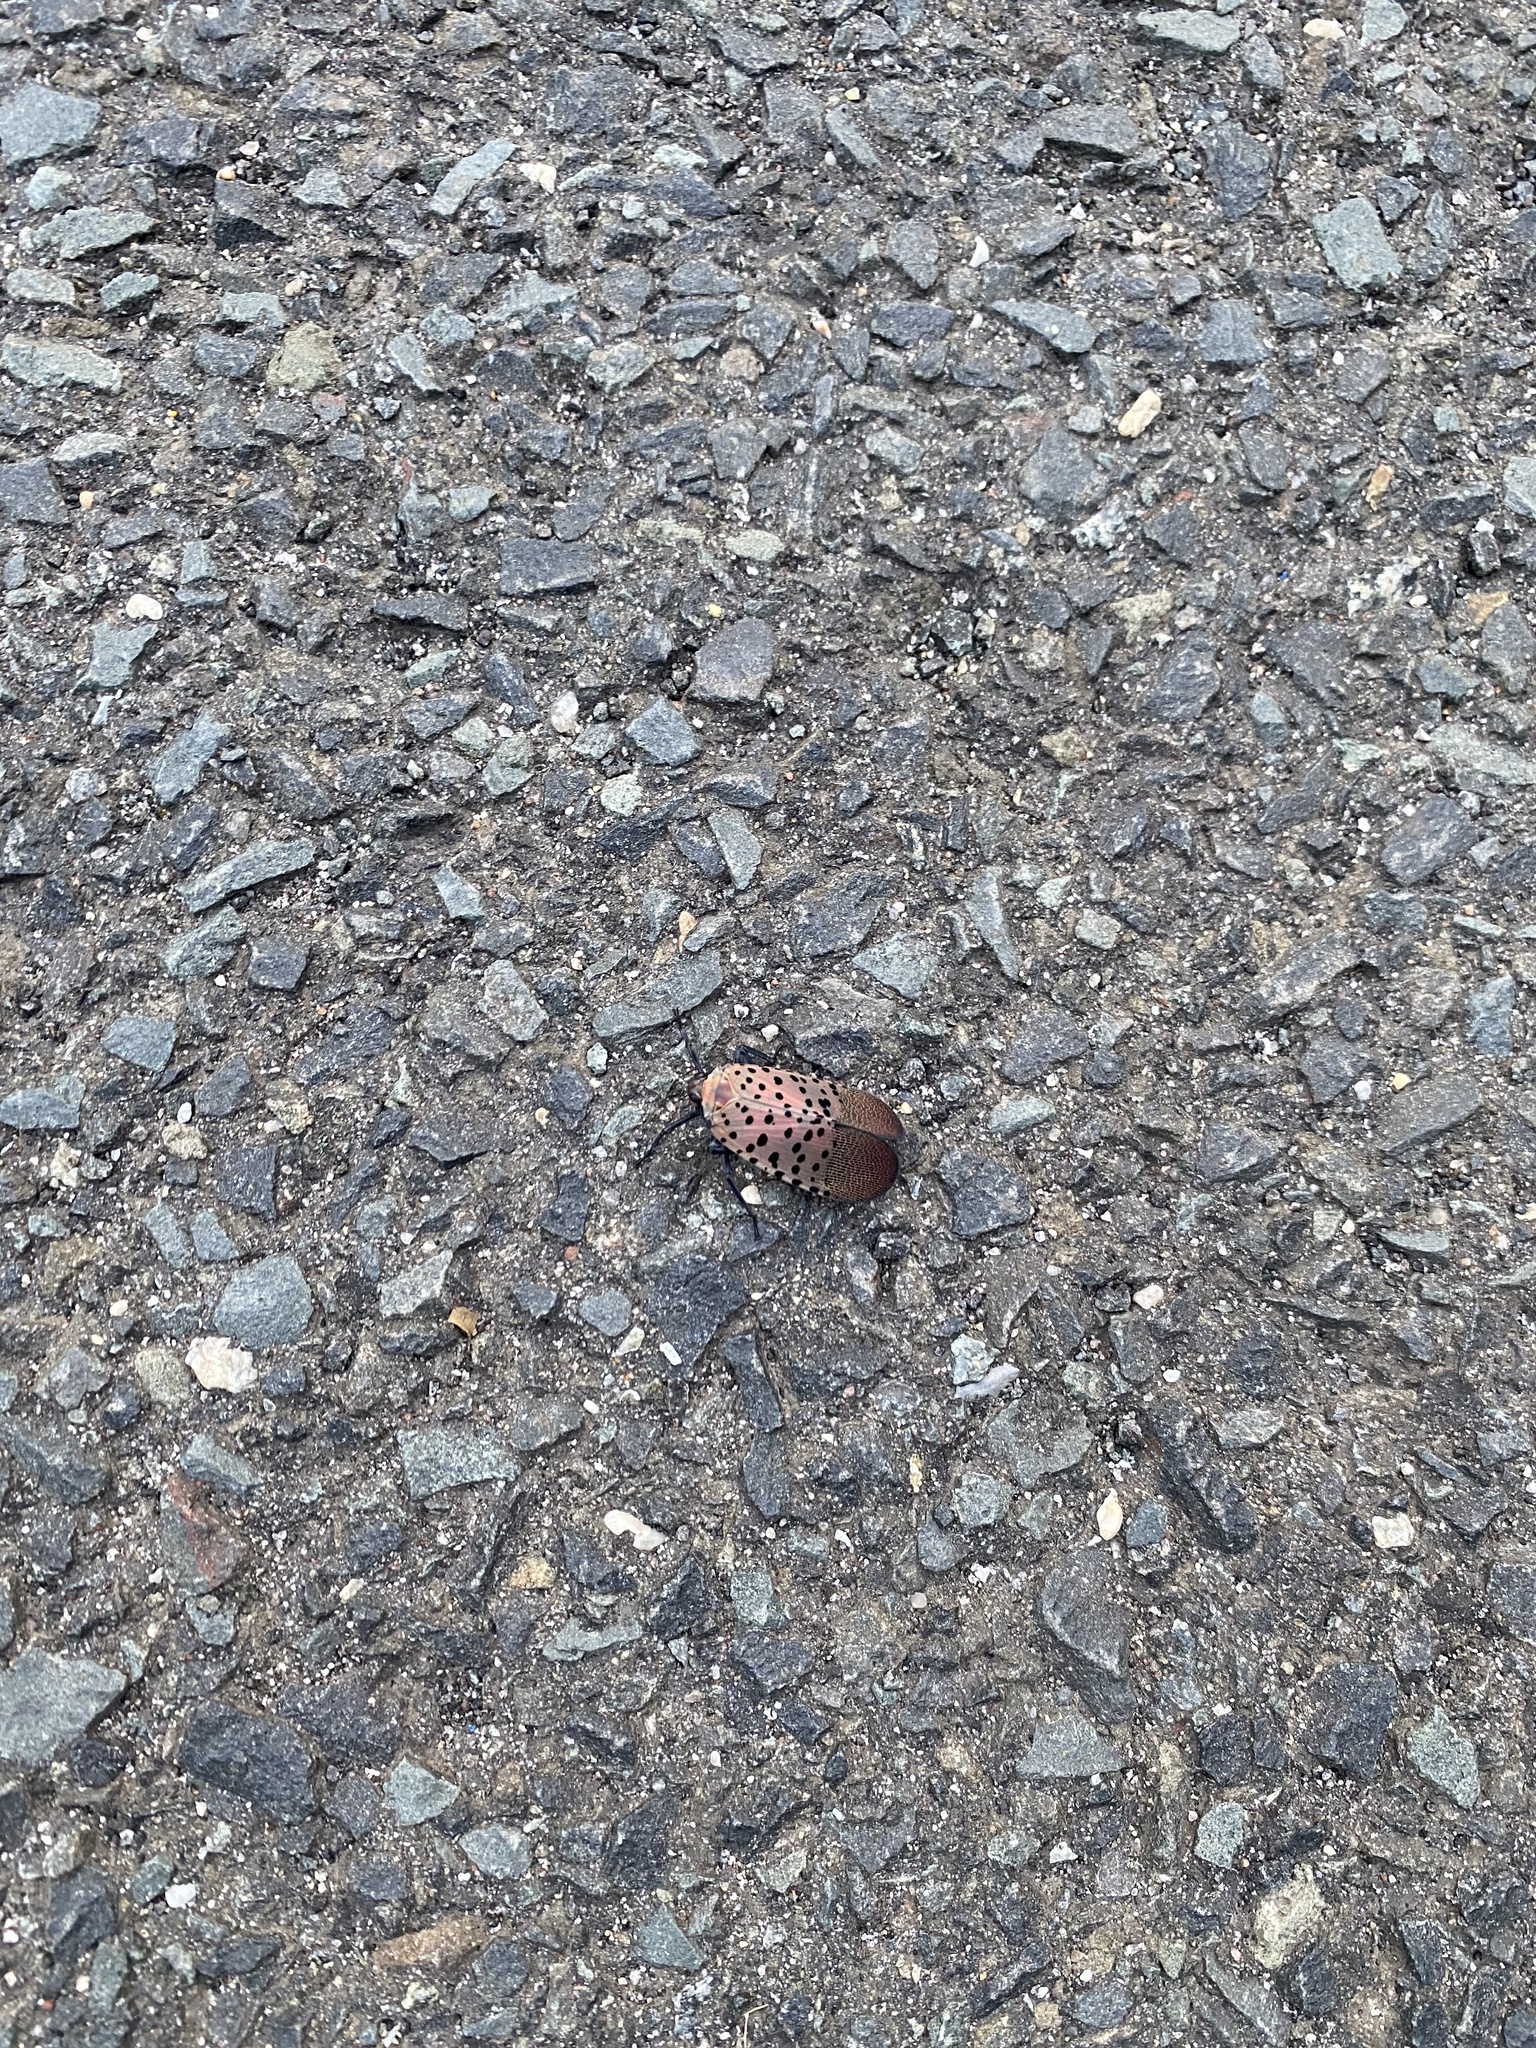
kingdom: Animalia
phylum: Arthropoda
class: Insecta
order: Hemiptera
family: Fulgoridae
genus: Lycorma
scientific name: Lycorma delicatula
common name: Spotted lanternfly
